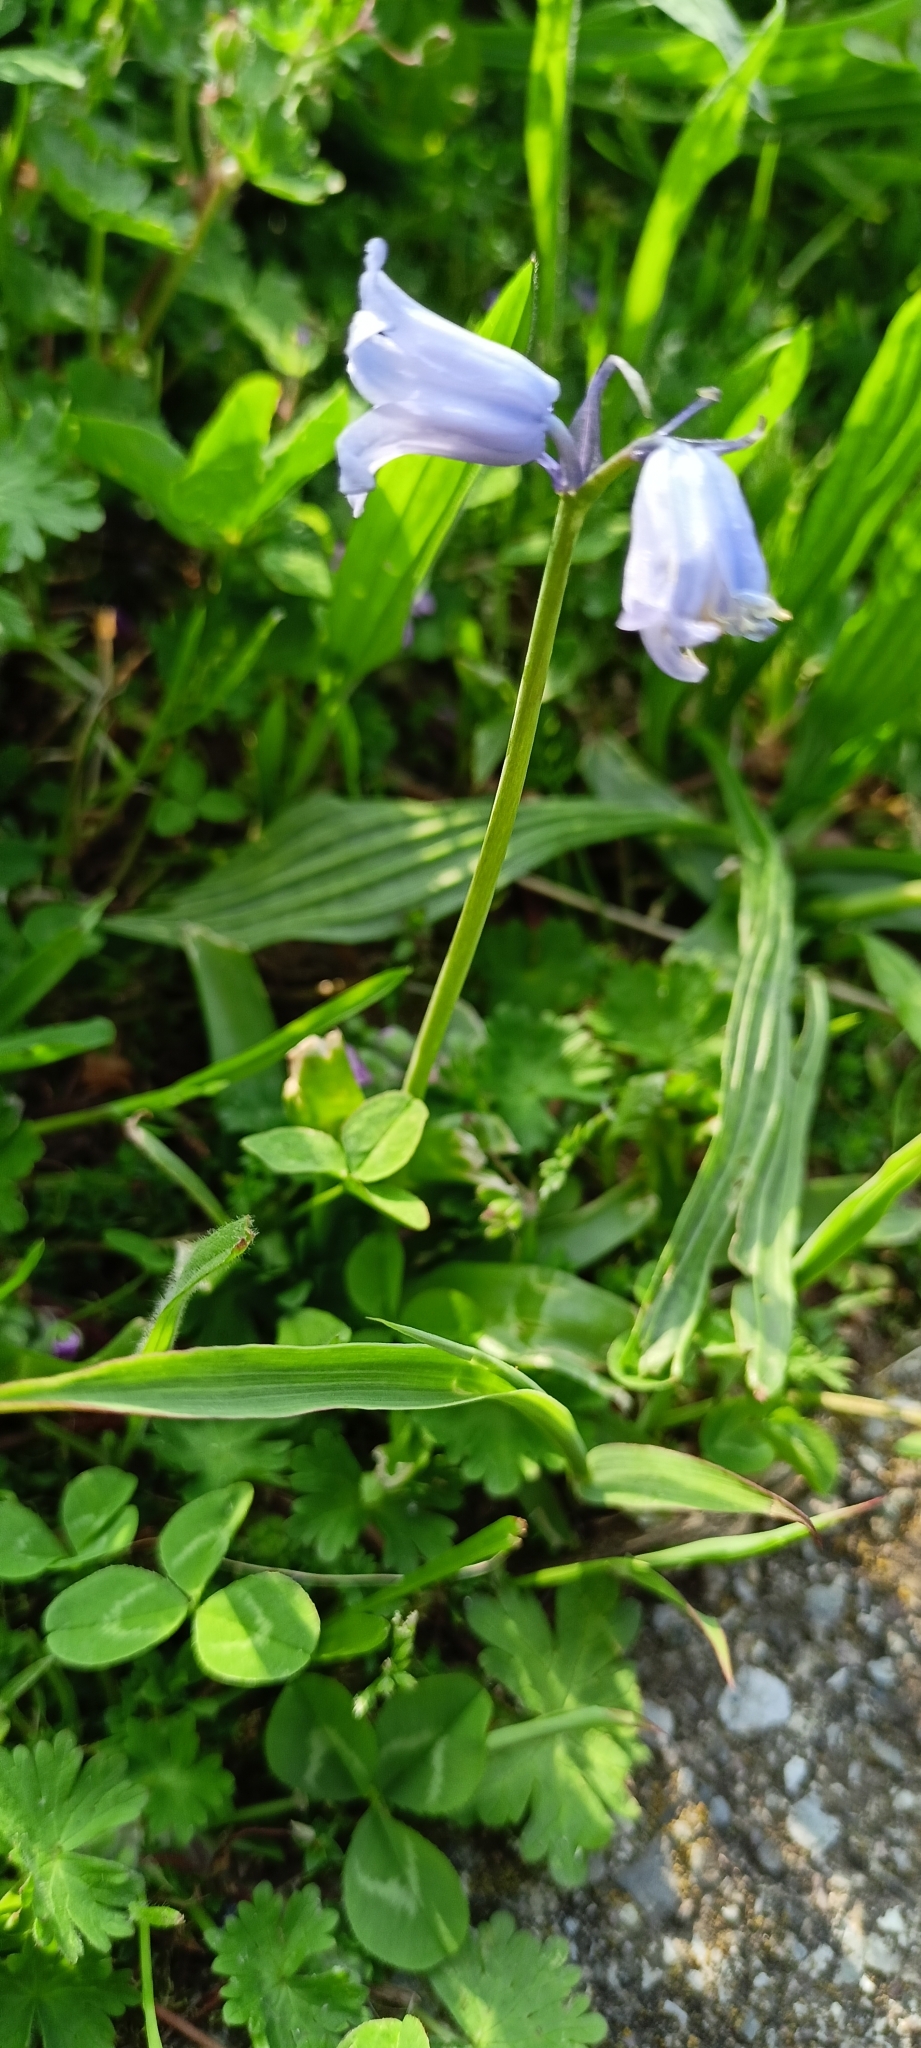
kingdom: Plantae
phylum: Tracheophyta
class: Liliopsida
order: Asparagales
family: Asparagaceae
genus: Hyacinthoides
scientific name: Hyacinthoides massartiana
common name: Hyacinthoides
